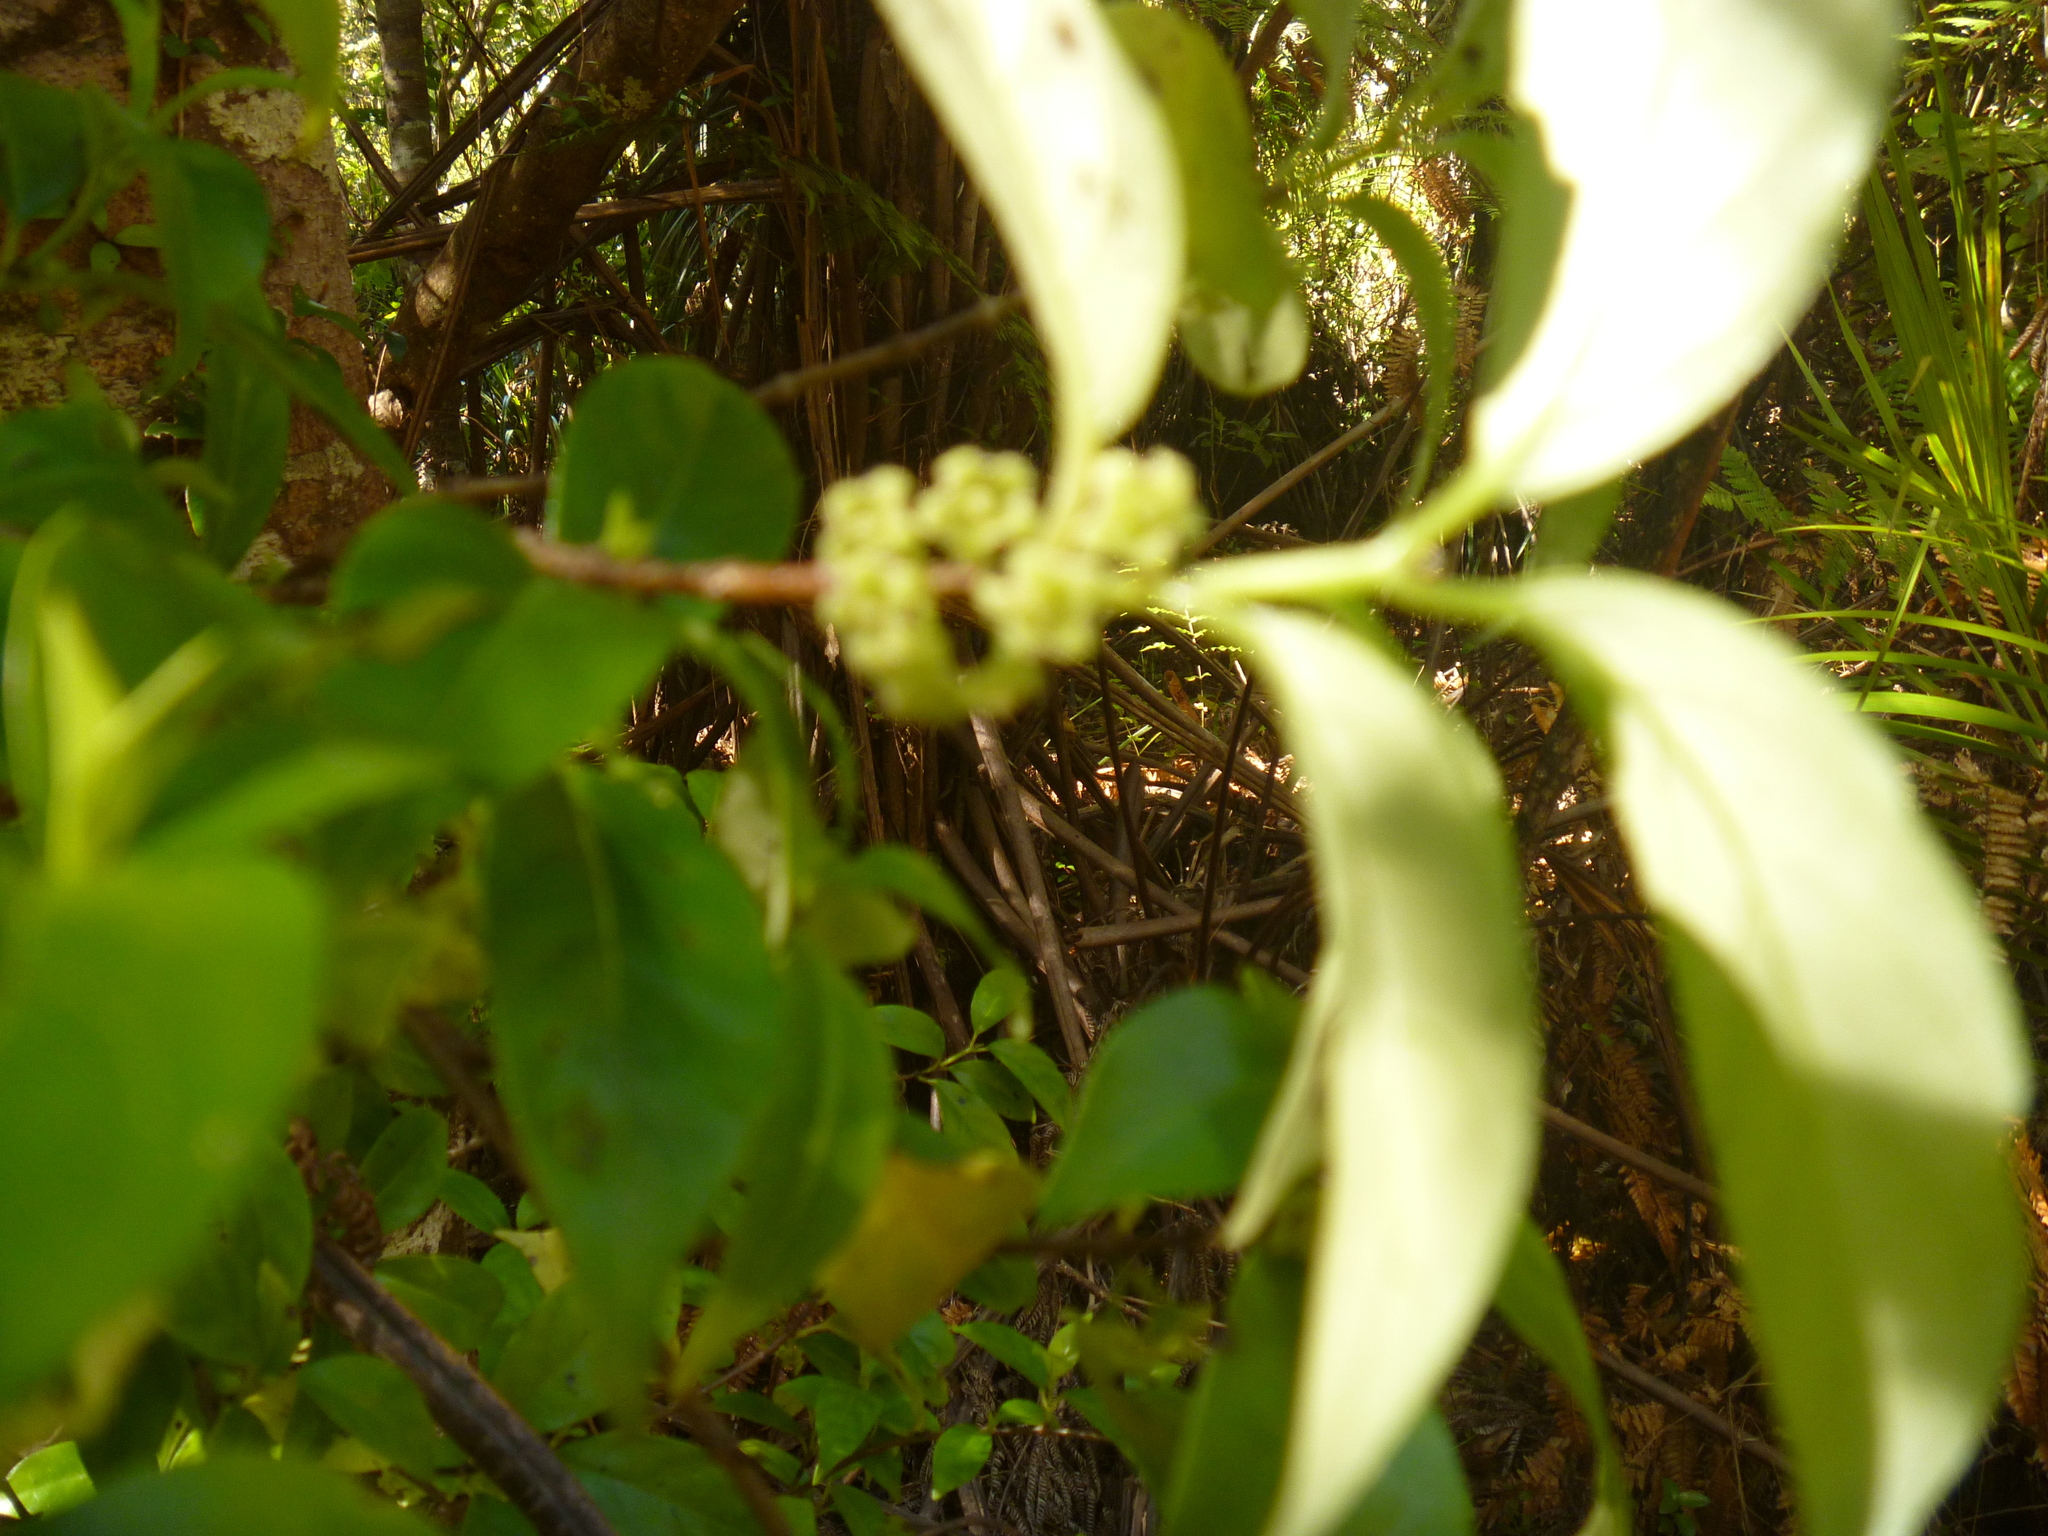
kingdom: Plantae
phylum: Tracheophyta
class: Magnoliopsida
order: Gentianales
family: Loganiaceae
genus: Geniostoma
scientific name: Geniostoma ligustrifolium
